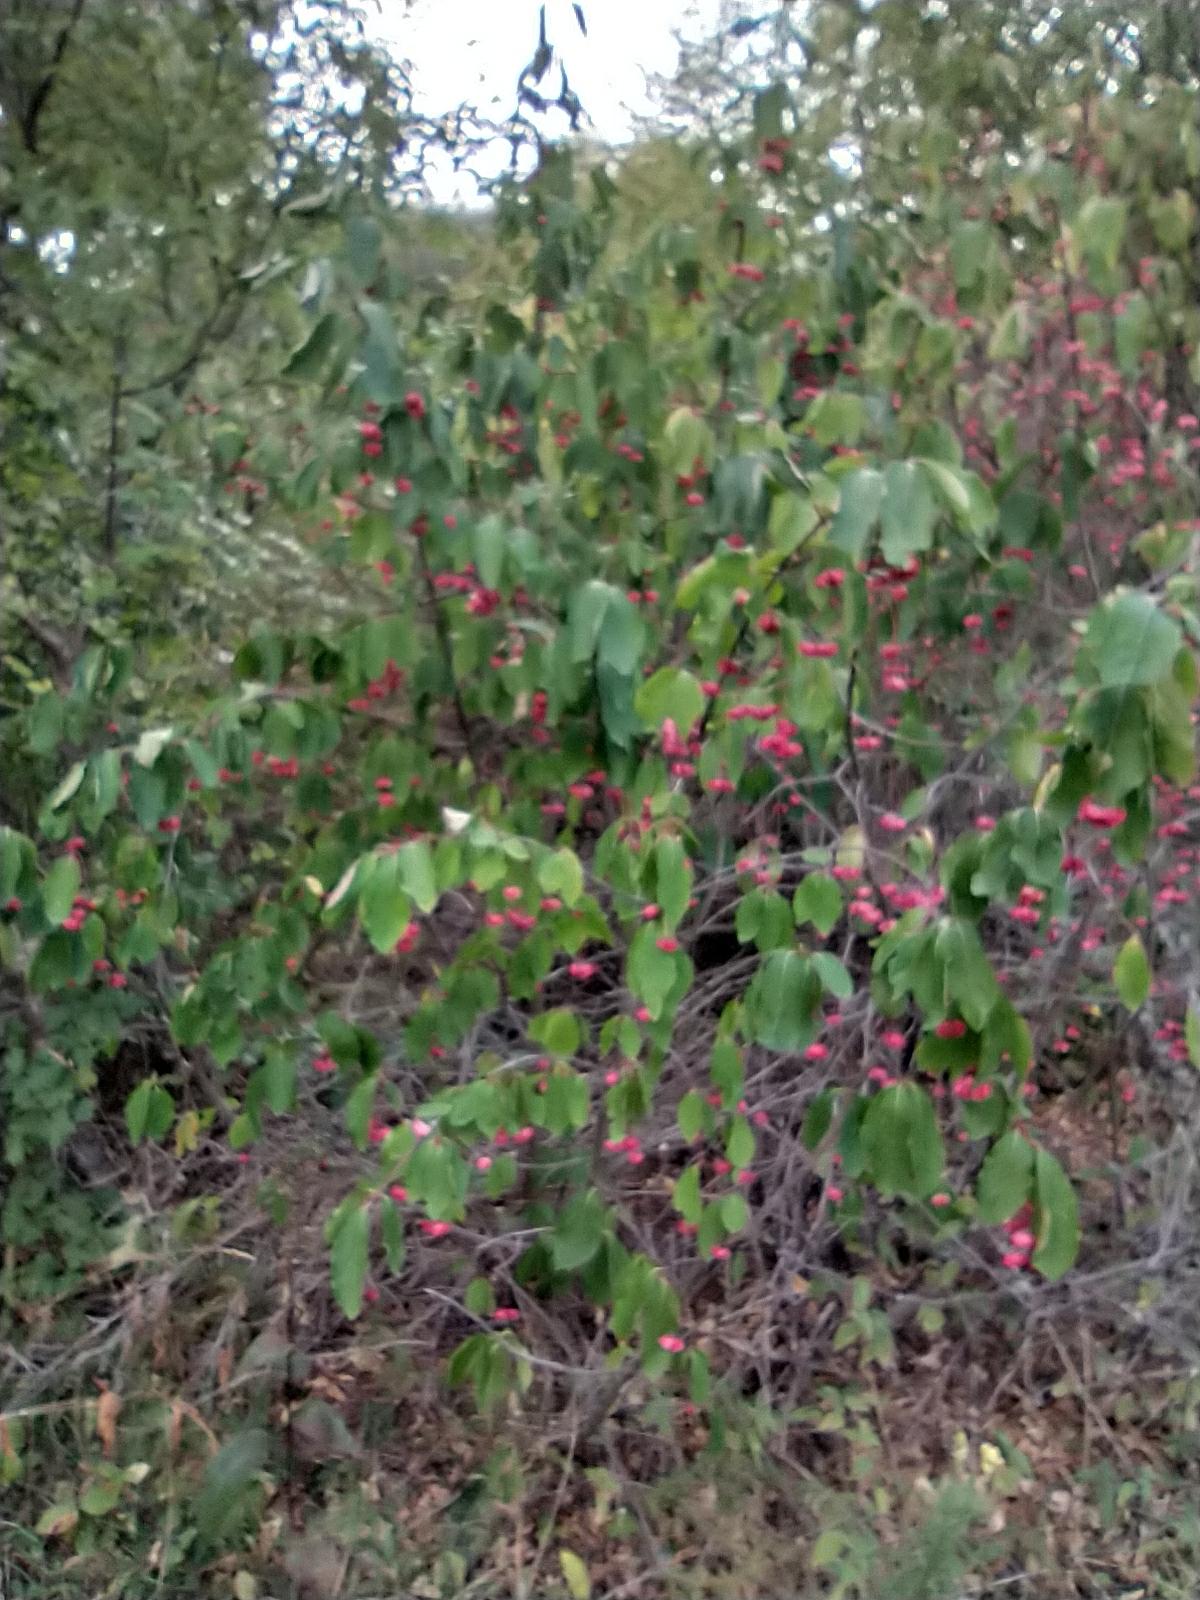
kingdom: Plantae
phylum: Tracheophyta
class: Magnoliopsida
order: Celastrales
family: Celastraceae
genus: Euonymus
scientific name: Euonymus latifolius
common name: Large-leaved spindle
